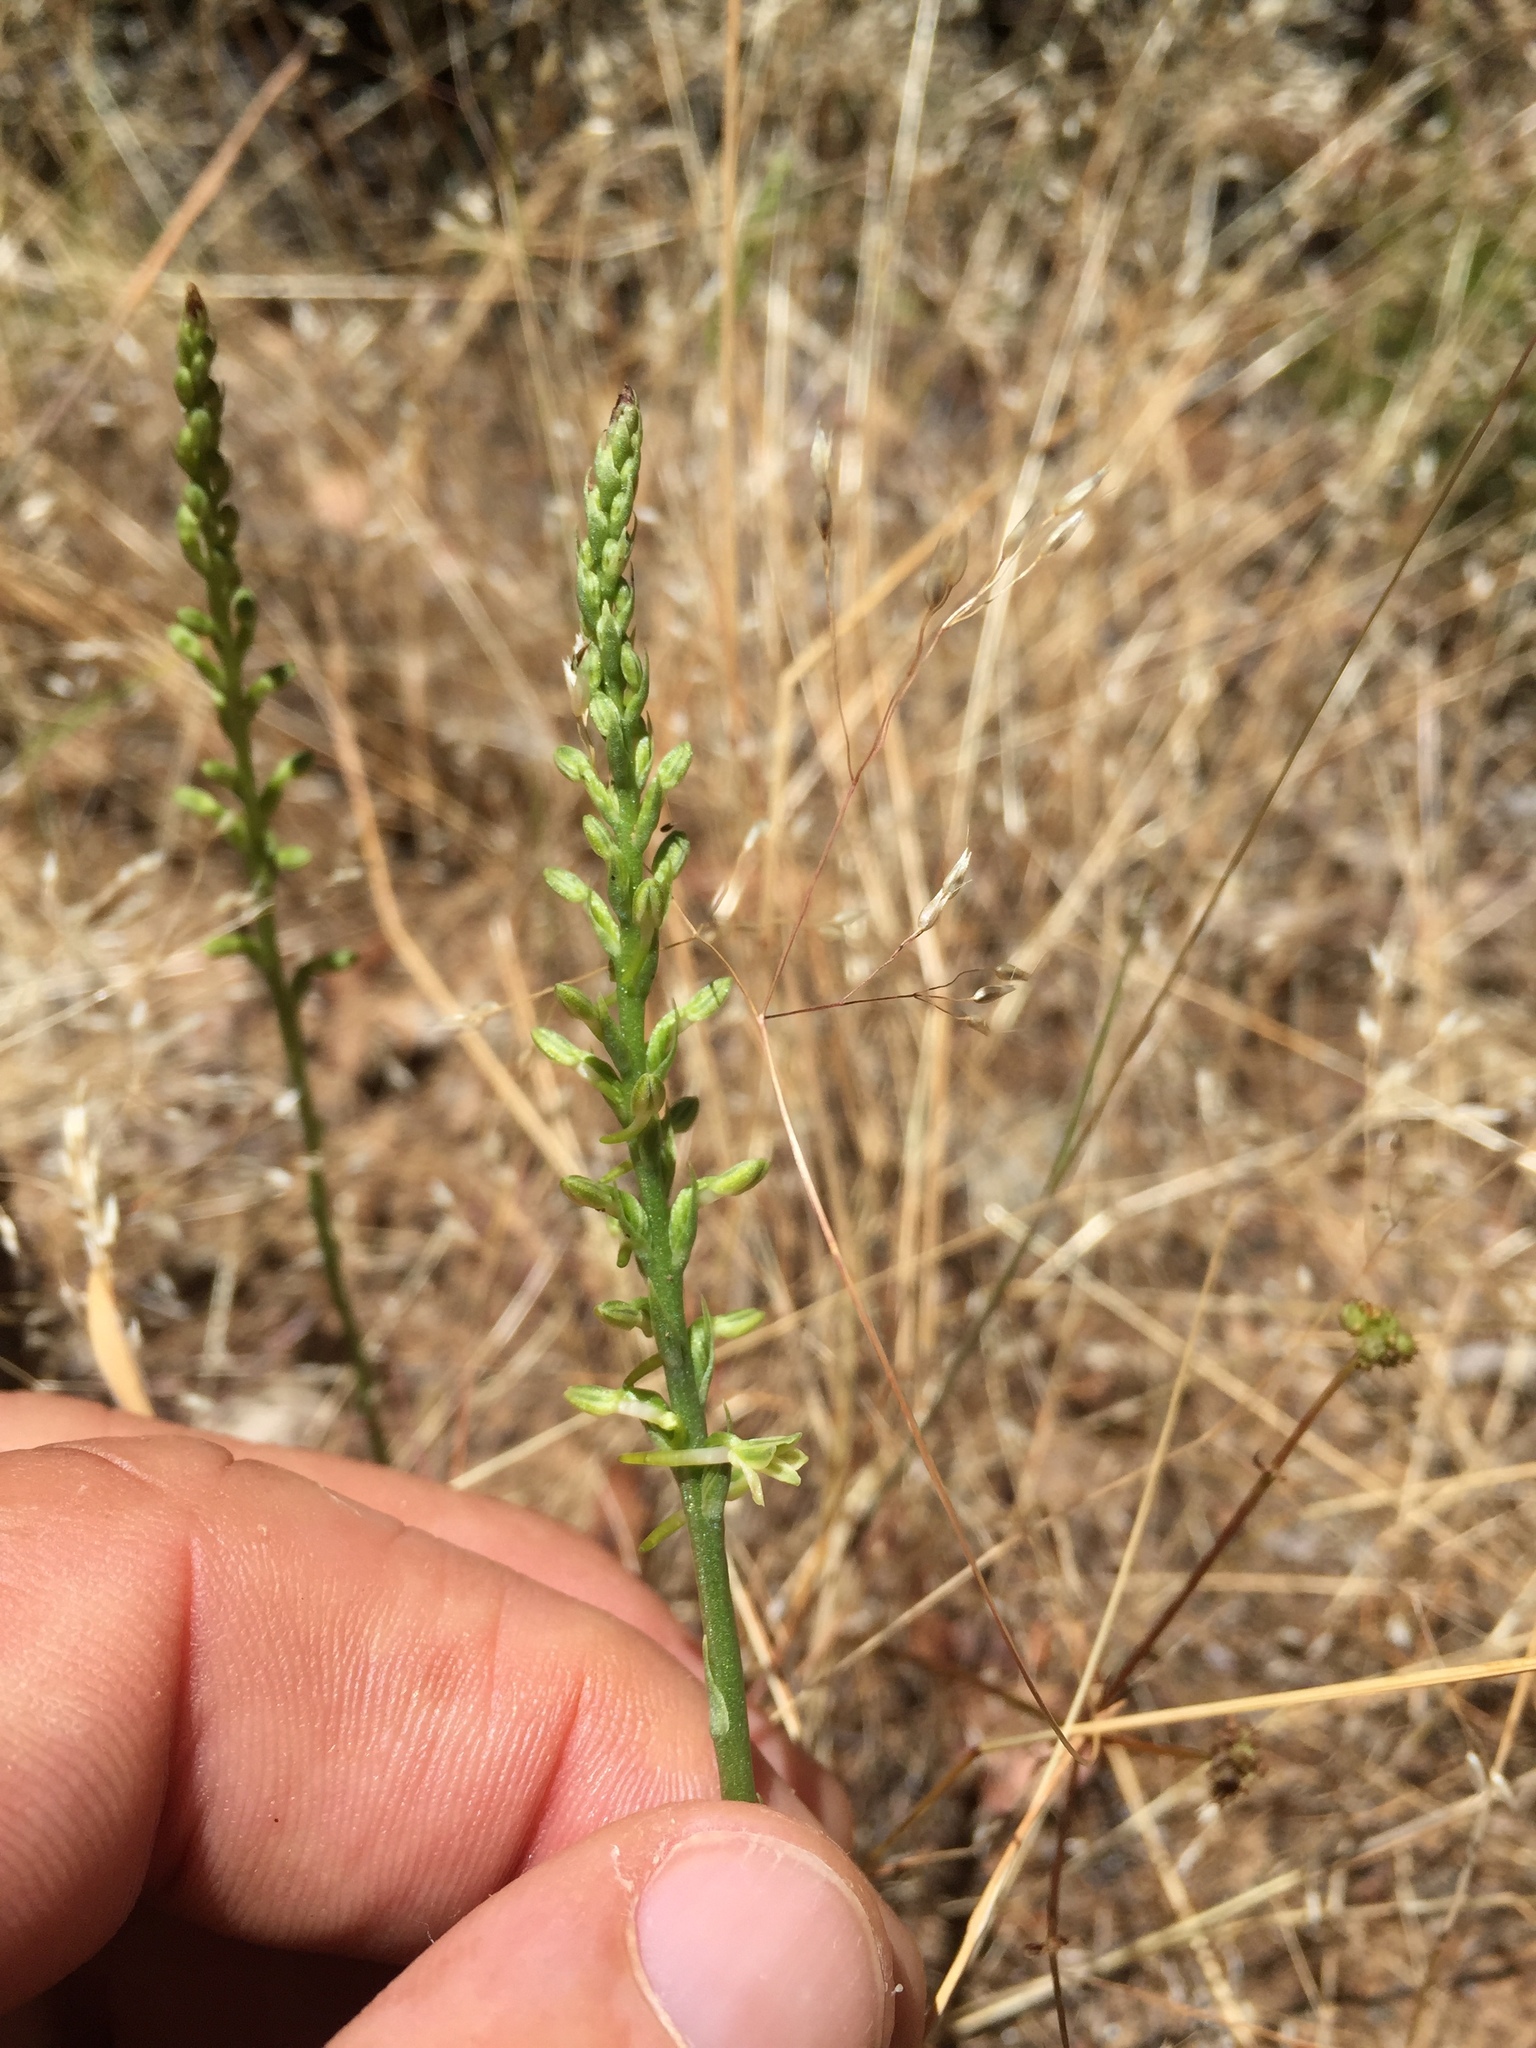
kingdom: Plantae
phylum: Tracheophyta
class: Liliopsida
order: Asparagales
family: Orchidaceae
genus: Platanthera
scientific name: Platanthera transversa
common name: Royal rein orchid
